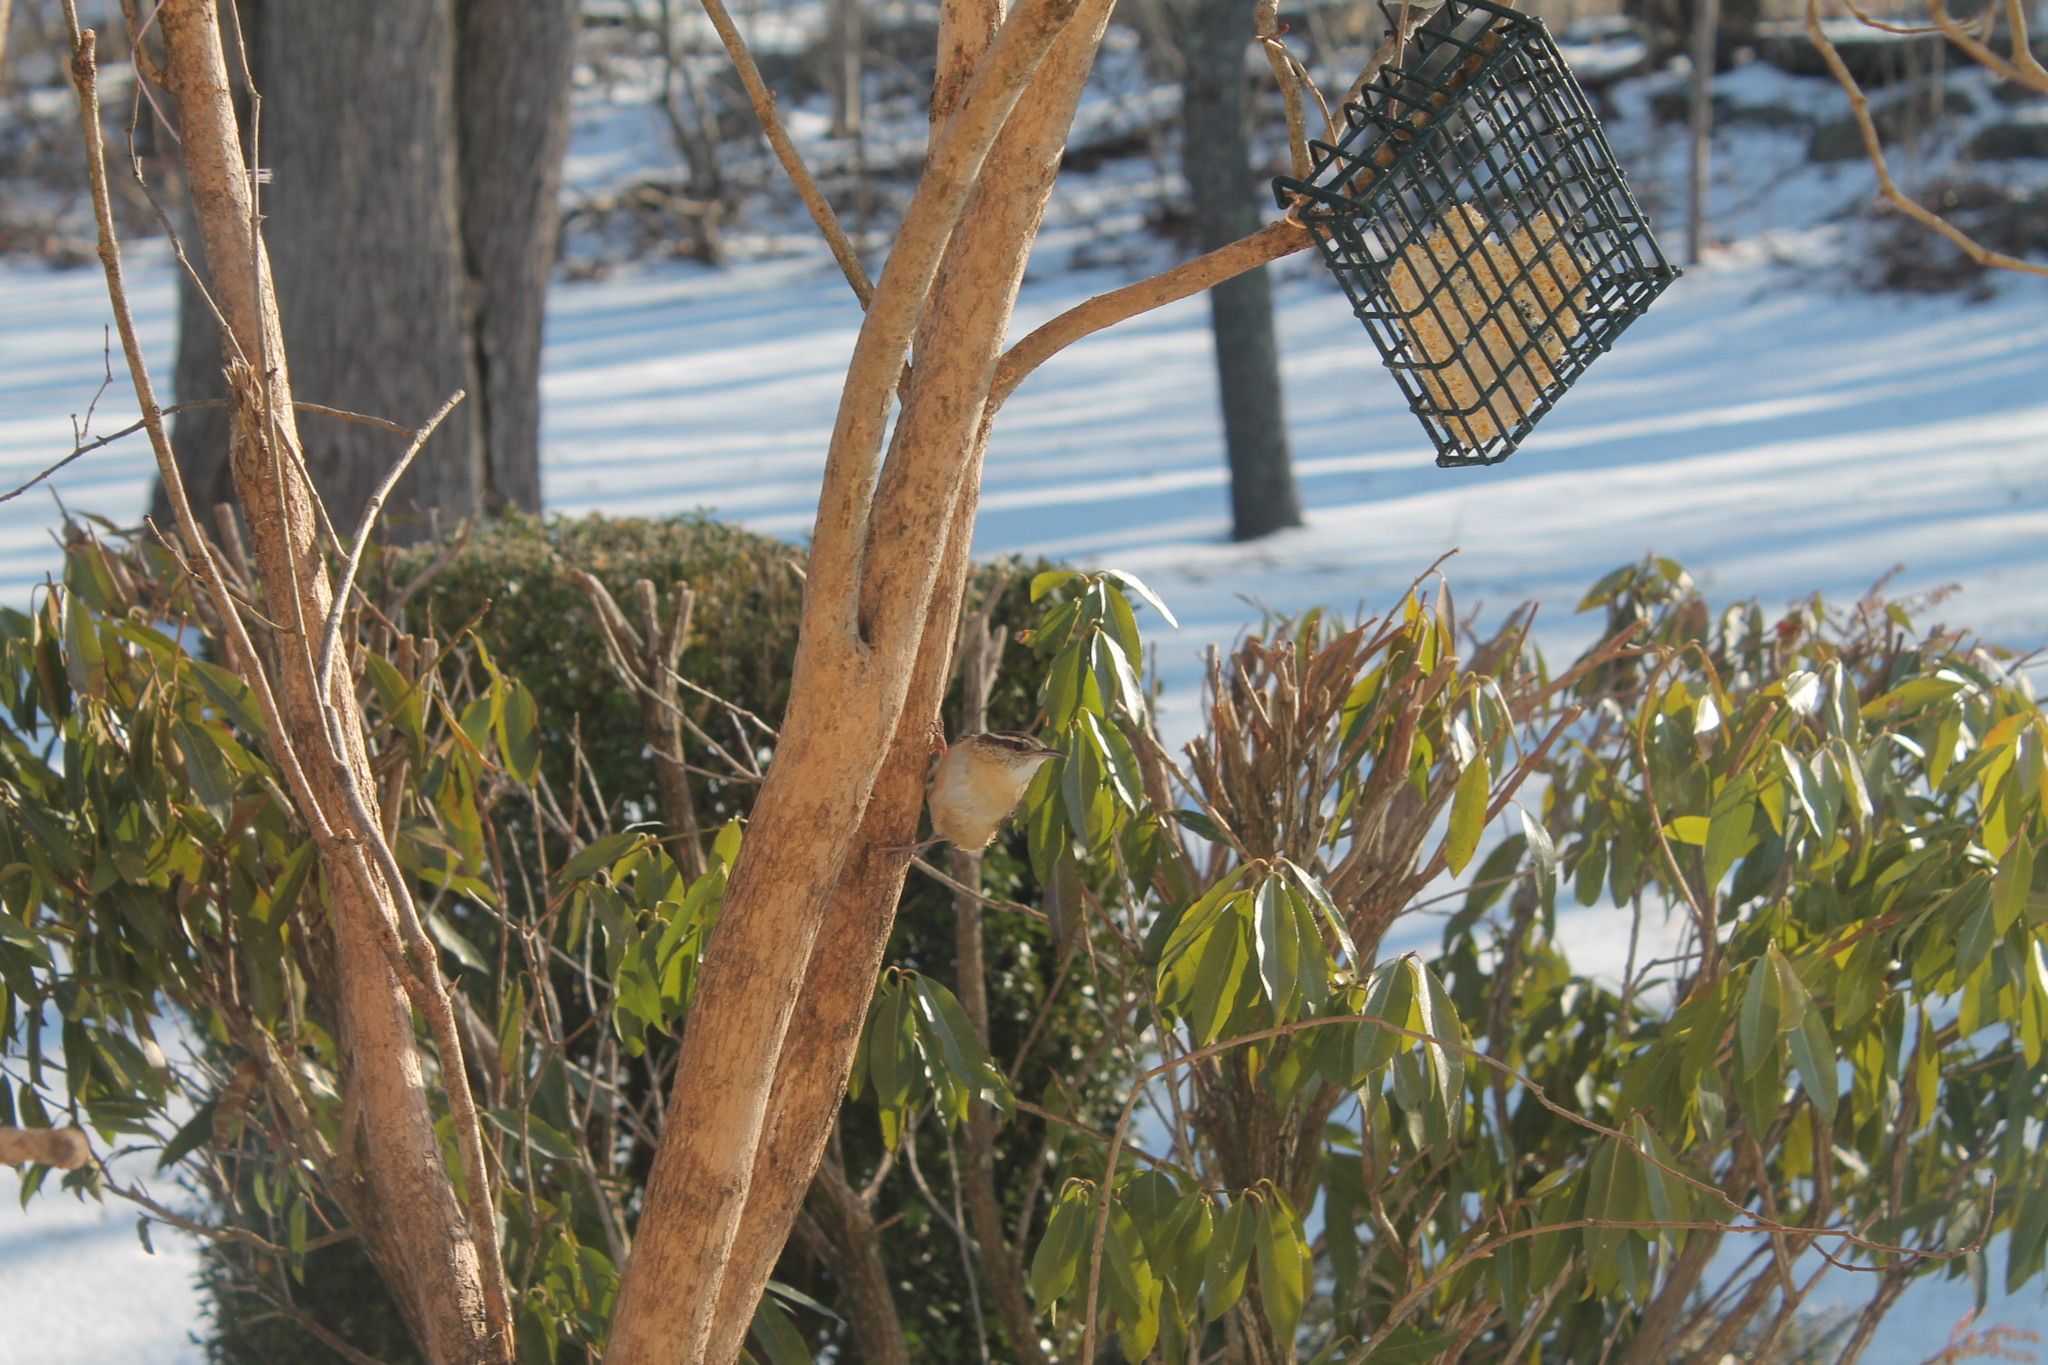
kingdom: Animalia
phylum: Chordata
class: Aves
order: Passeriformes
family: Troglodytidae
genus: Thryothorus
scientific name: Thryothorus ludovicianus
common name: Carolina wren
